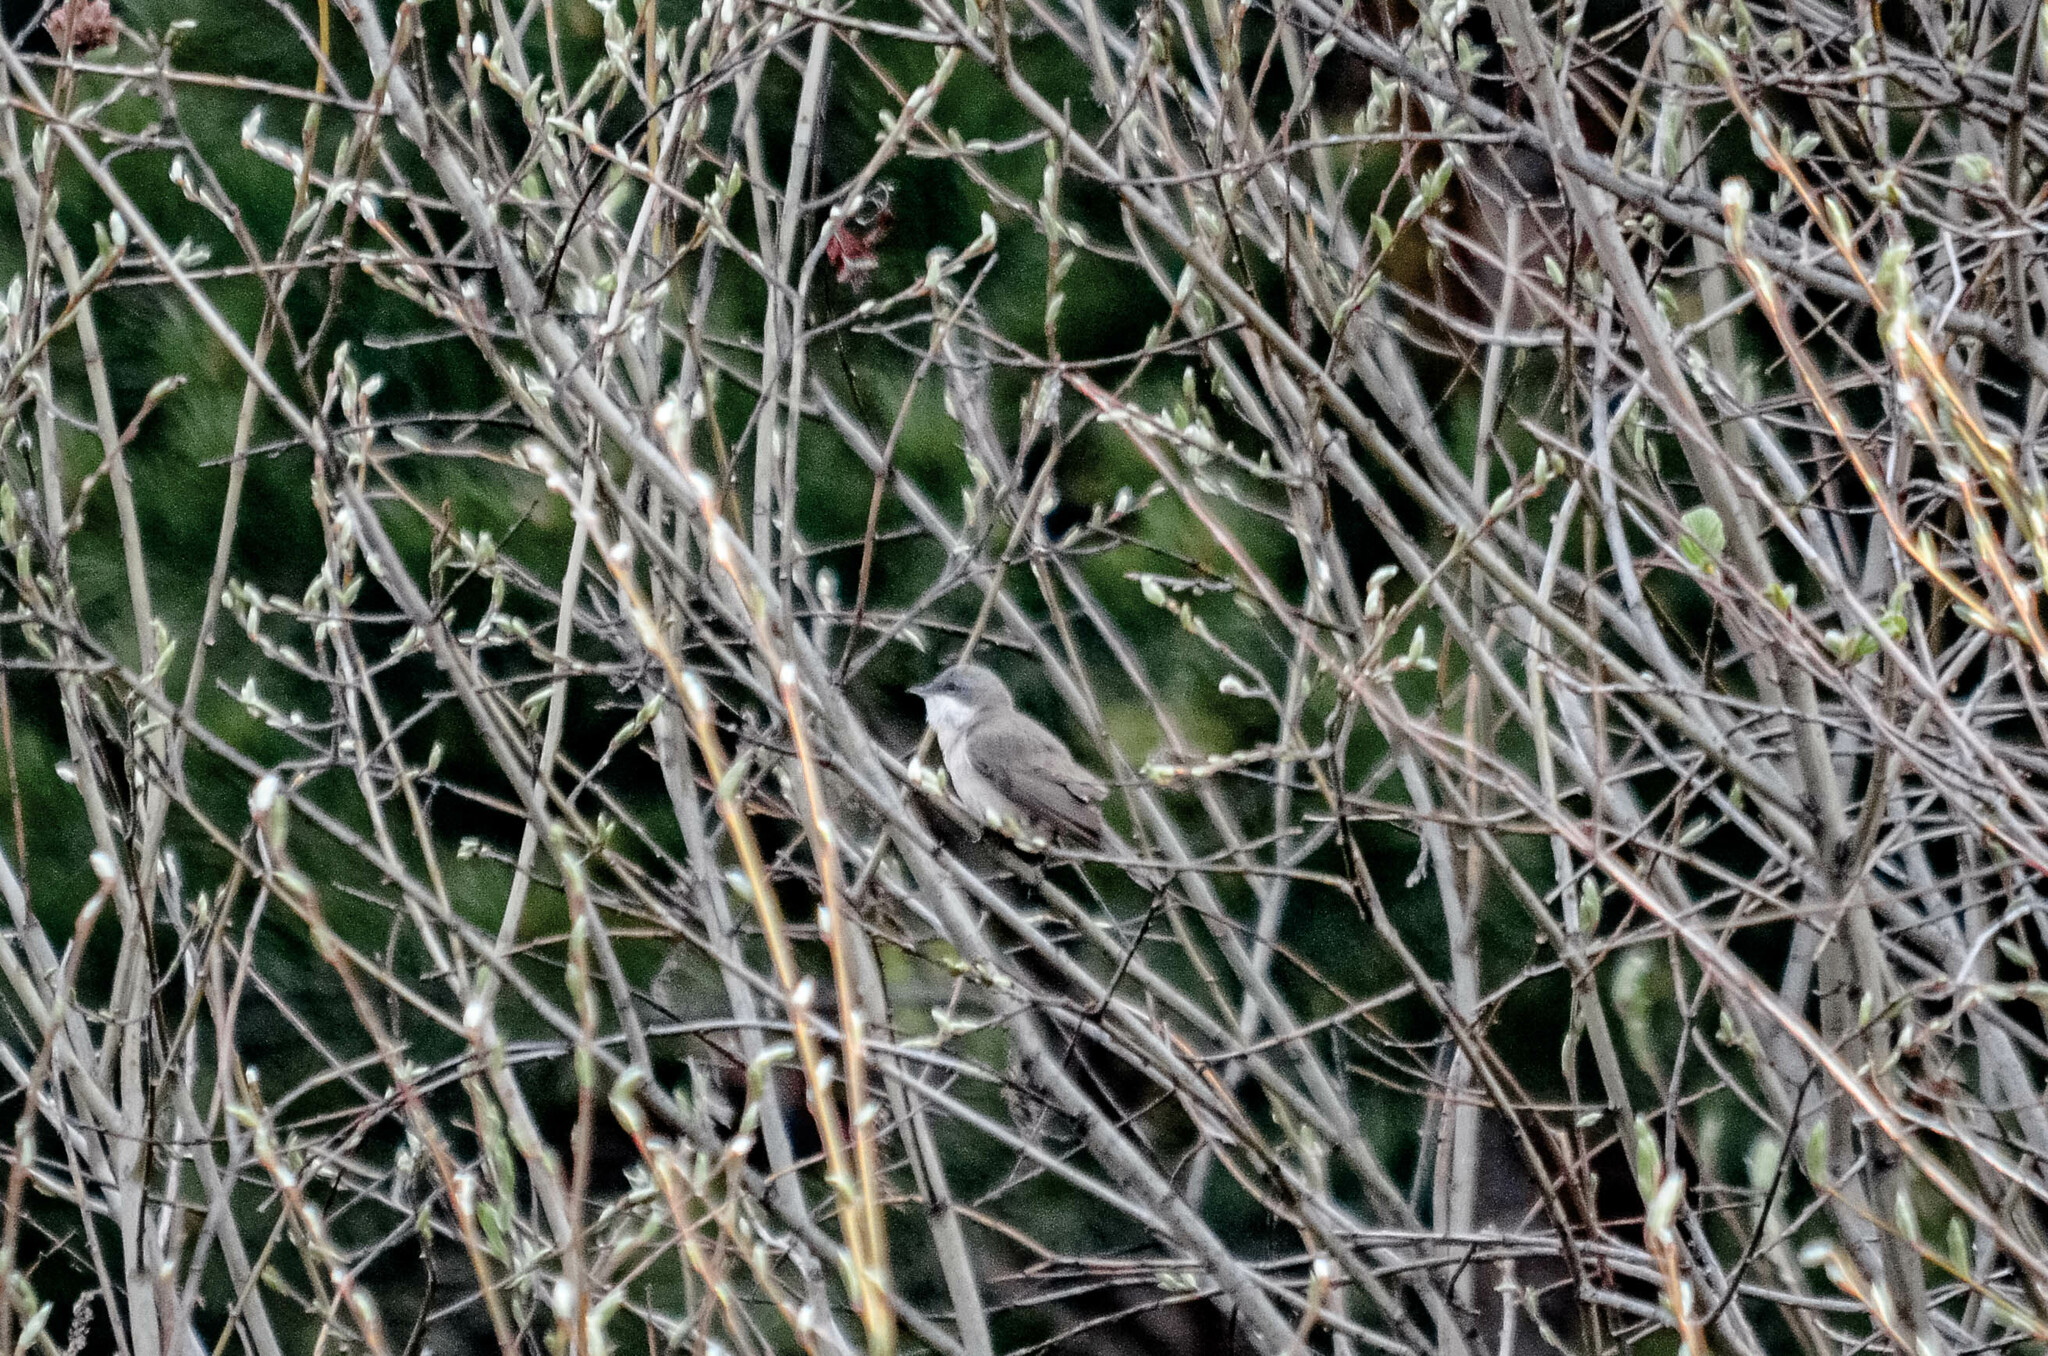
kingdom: Animalia
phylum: Chordata
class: Aves
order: Passeriformes
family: Sylviidae
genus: Sylvia
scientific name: Sylvia curruca
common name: Lesser whitethroat
